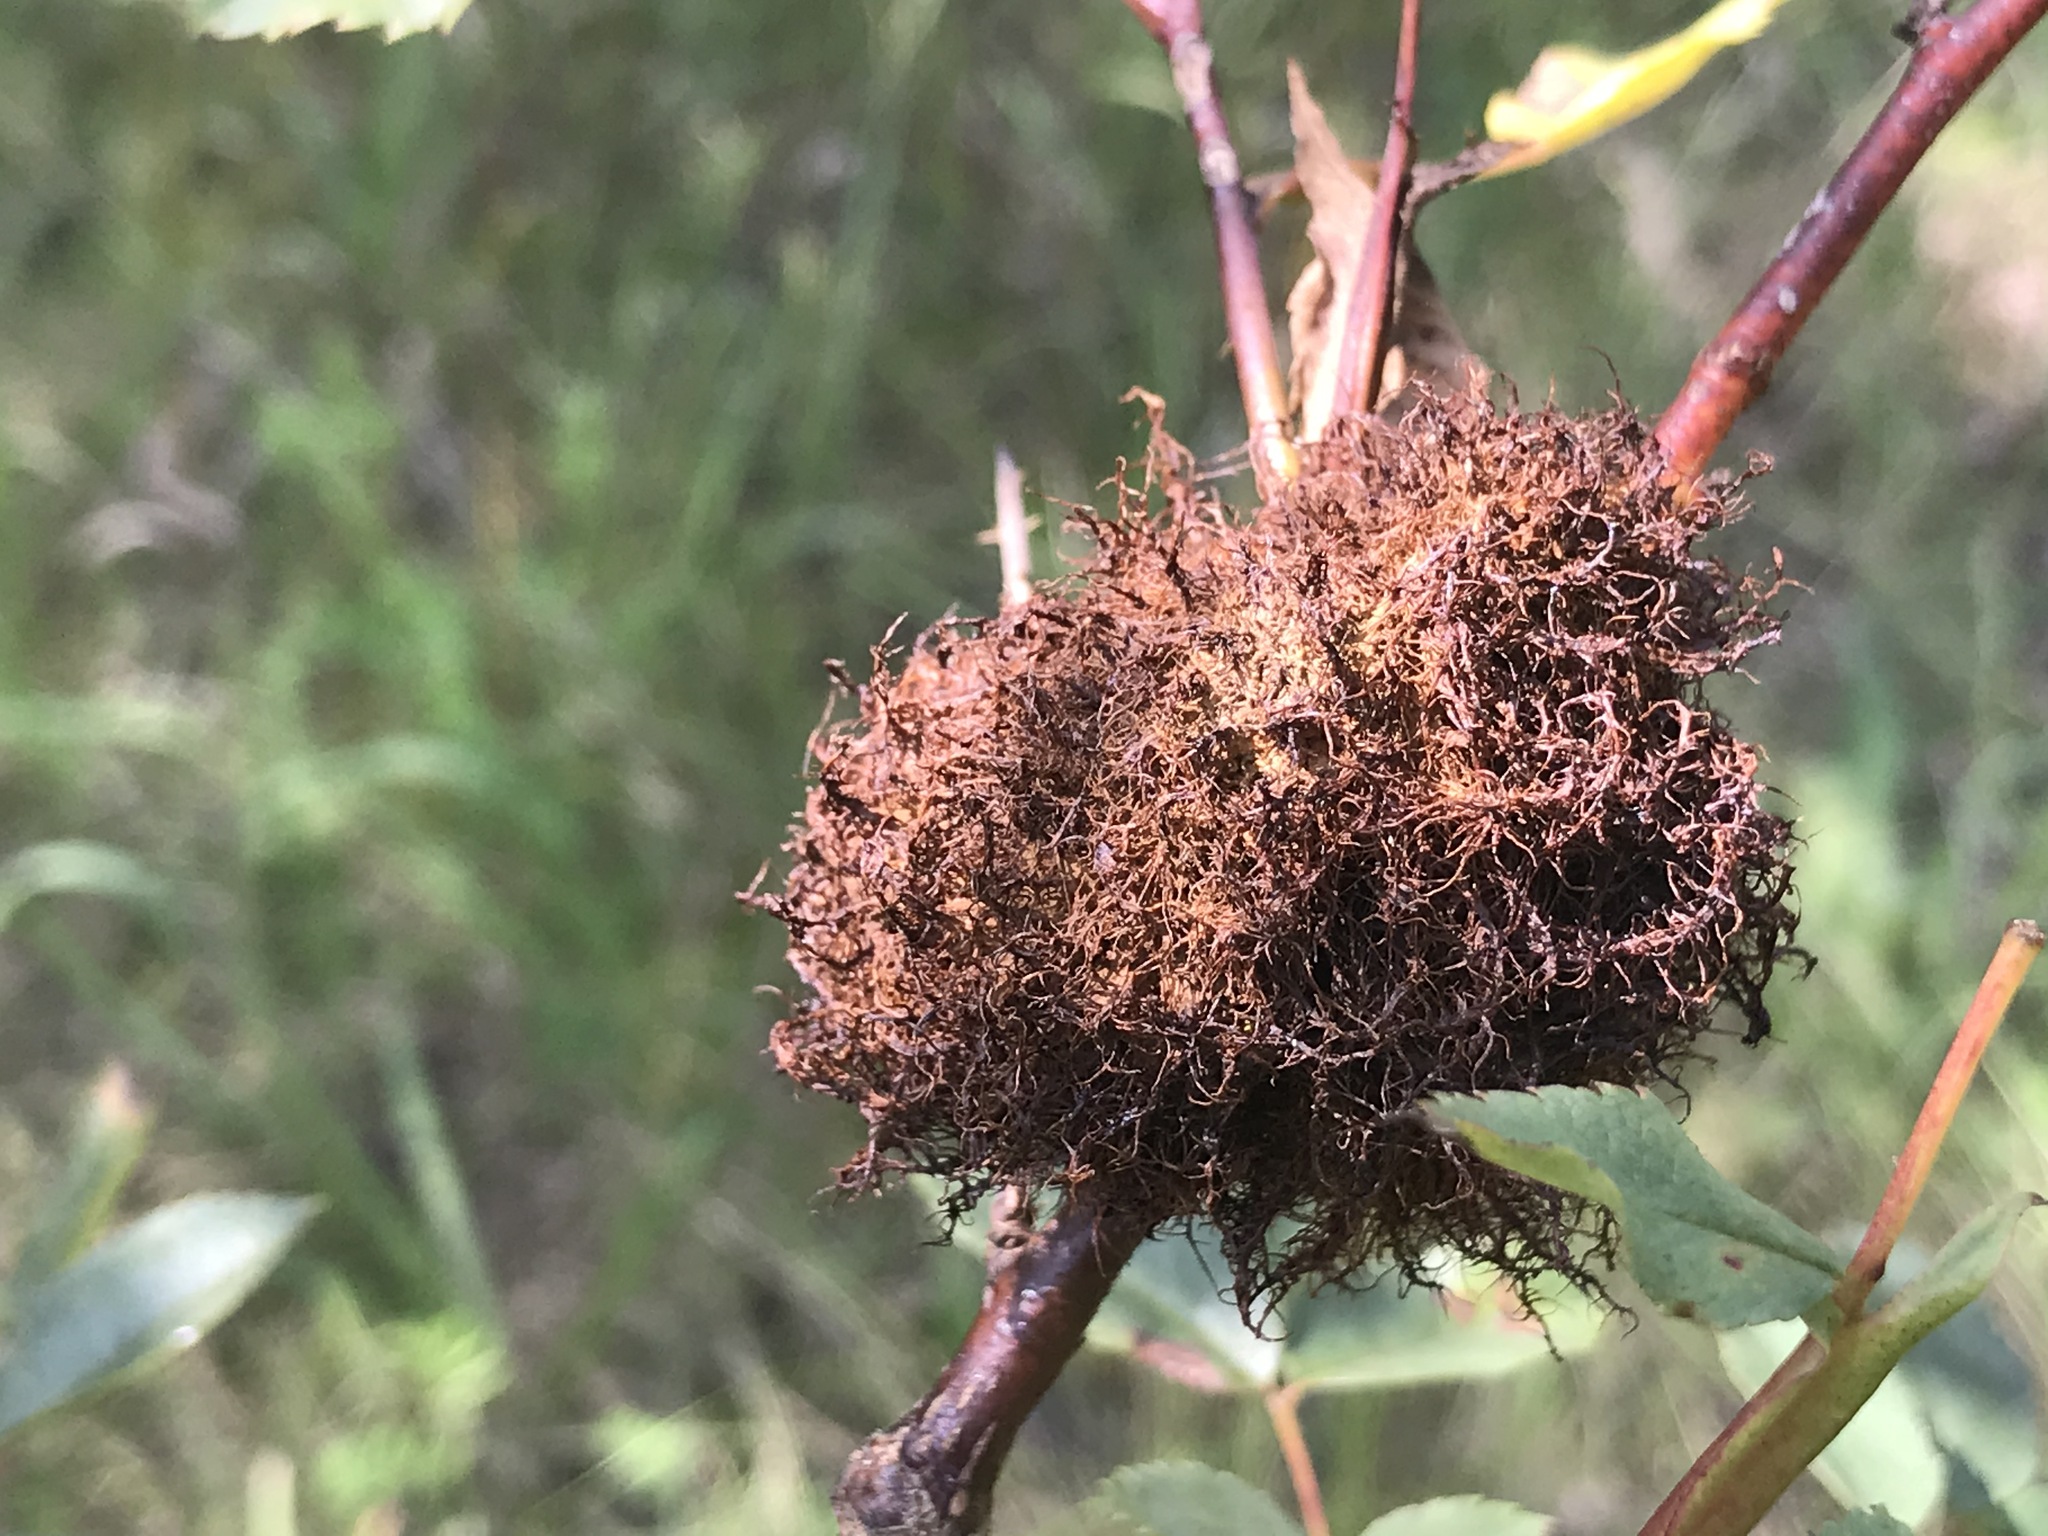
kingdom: Animalia
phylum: Arthropoda
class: Insecta
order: Hymenoptera
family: Cynipidae
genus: Diplolepis
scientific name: Diplolepis rosae
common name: Bedeguar gall
